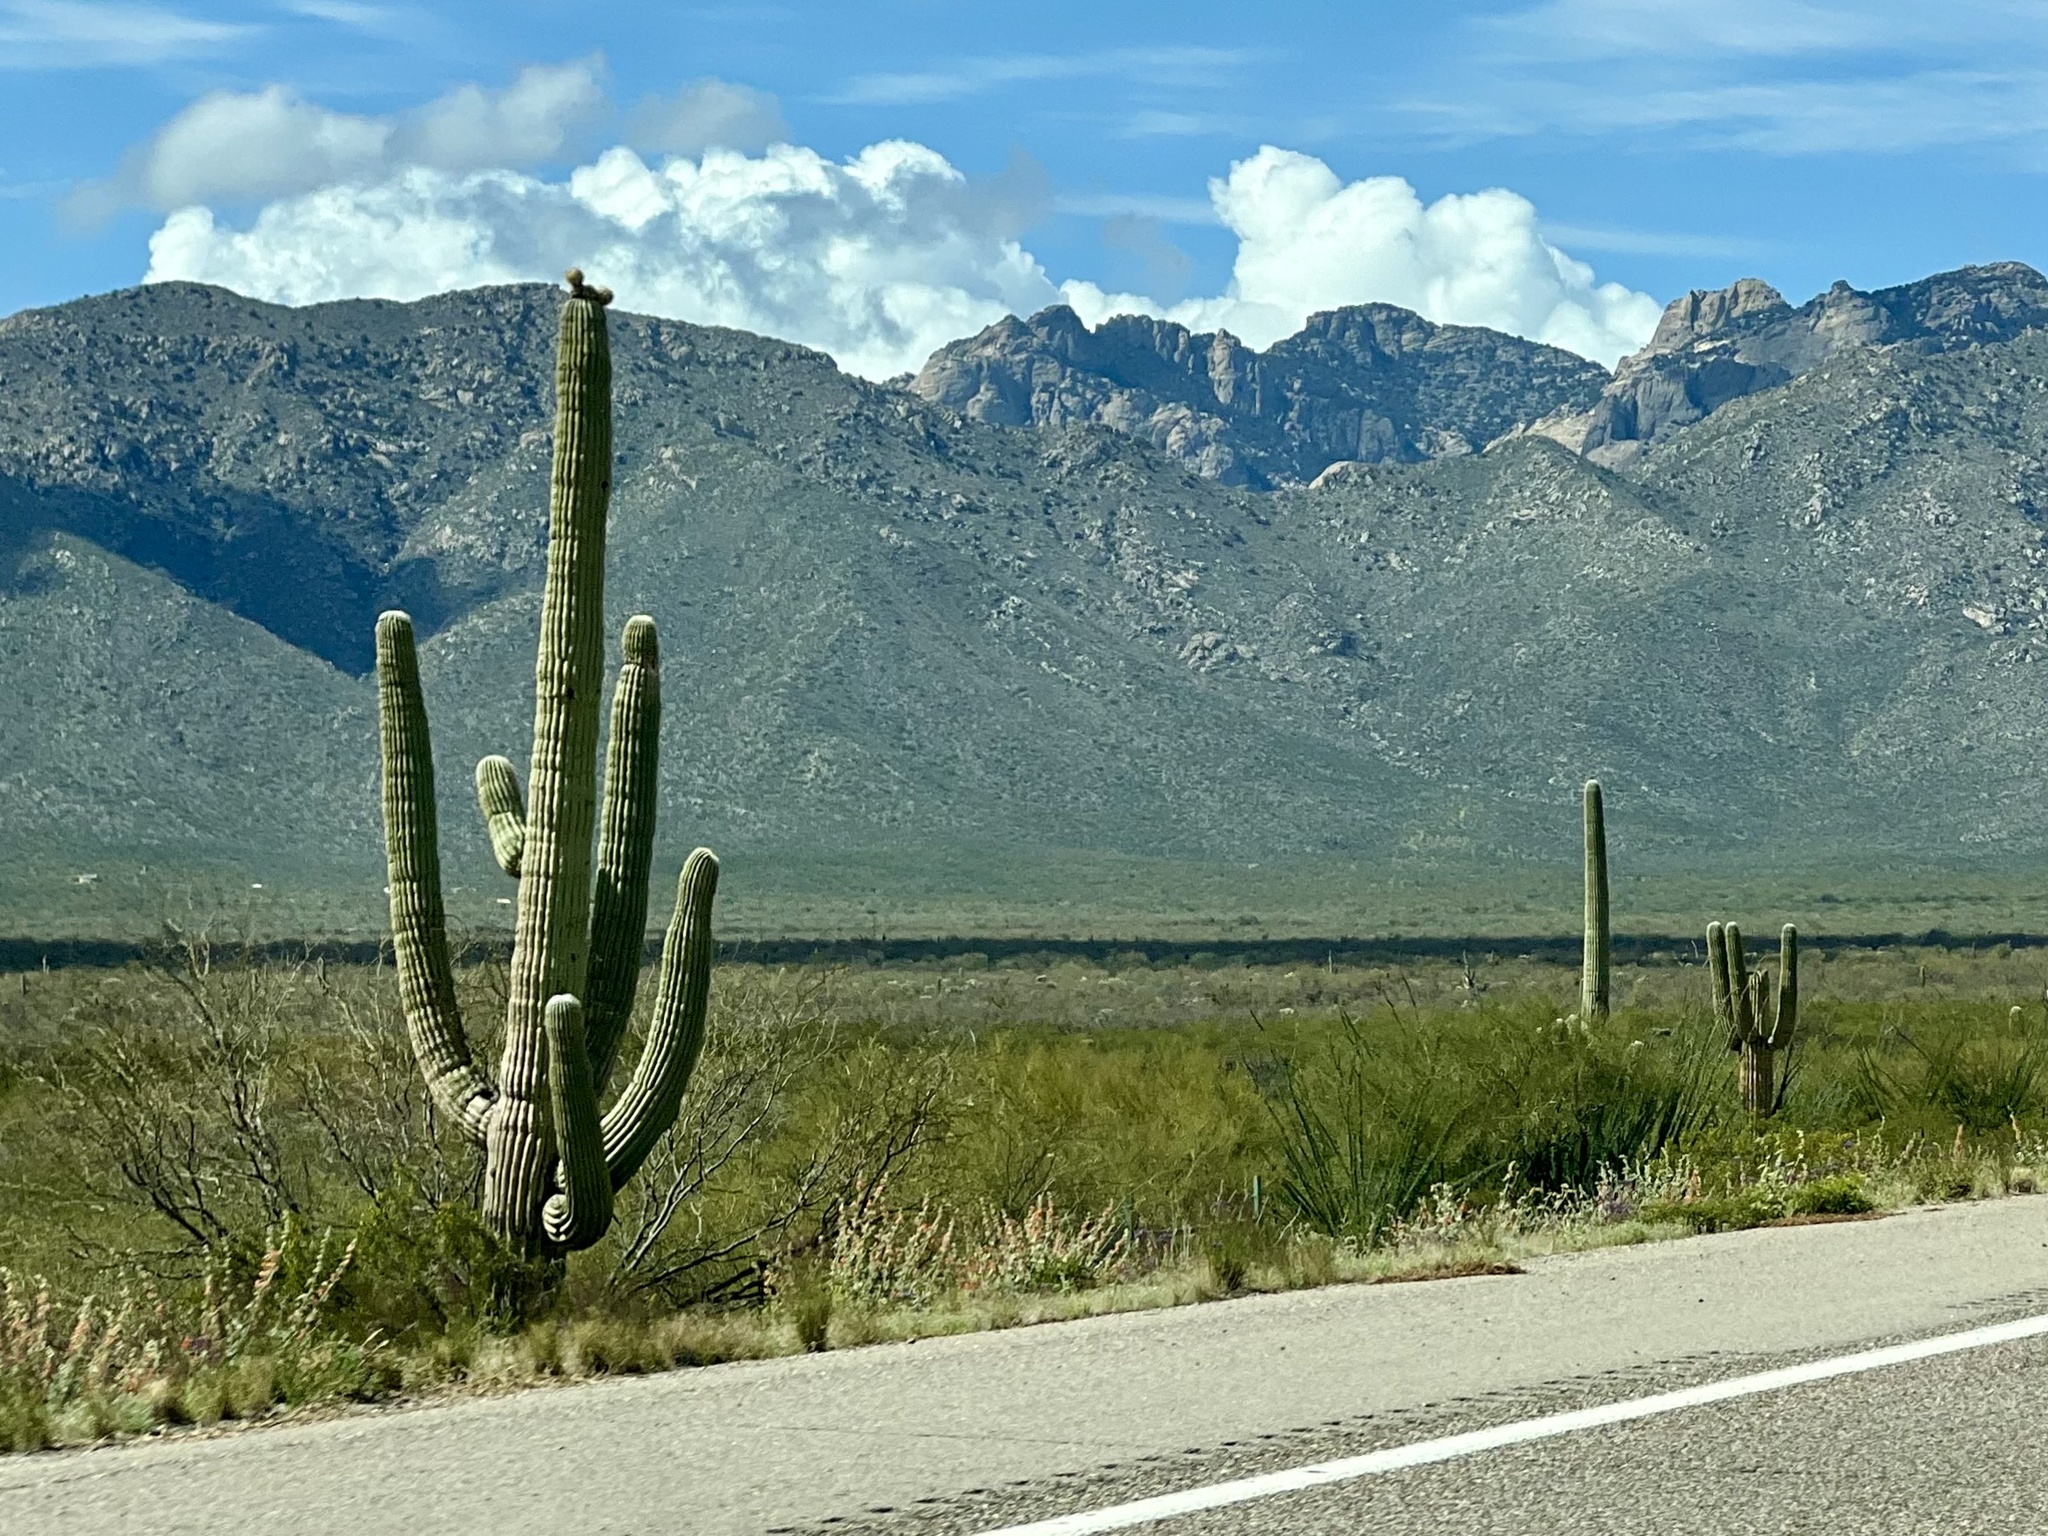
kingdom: Plantae
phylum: Tracheophyta
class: Magnoliopsida
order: Caryophyllales
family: Cactaceae
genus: Carnegiea
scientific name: Carnegiea gigantea
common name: Saguaro
